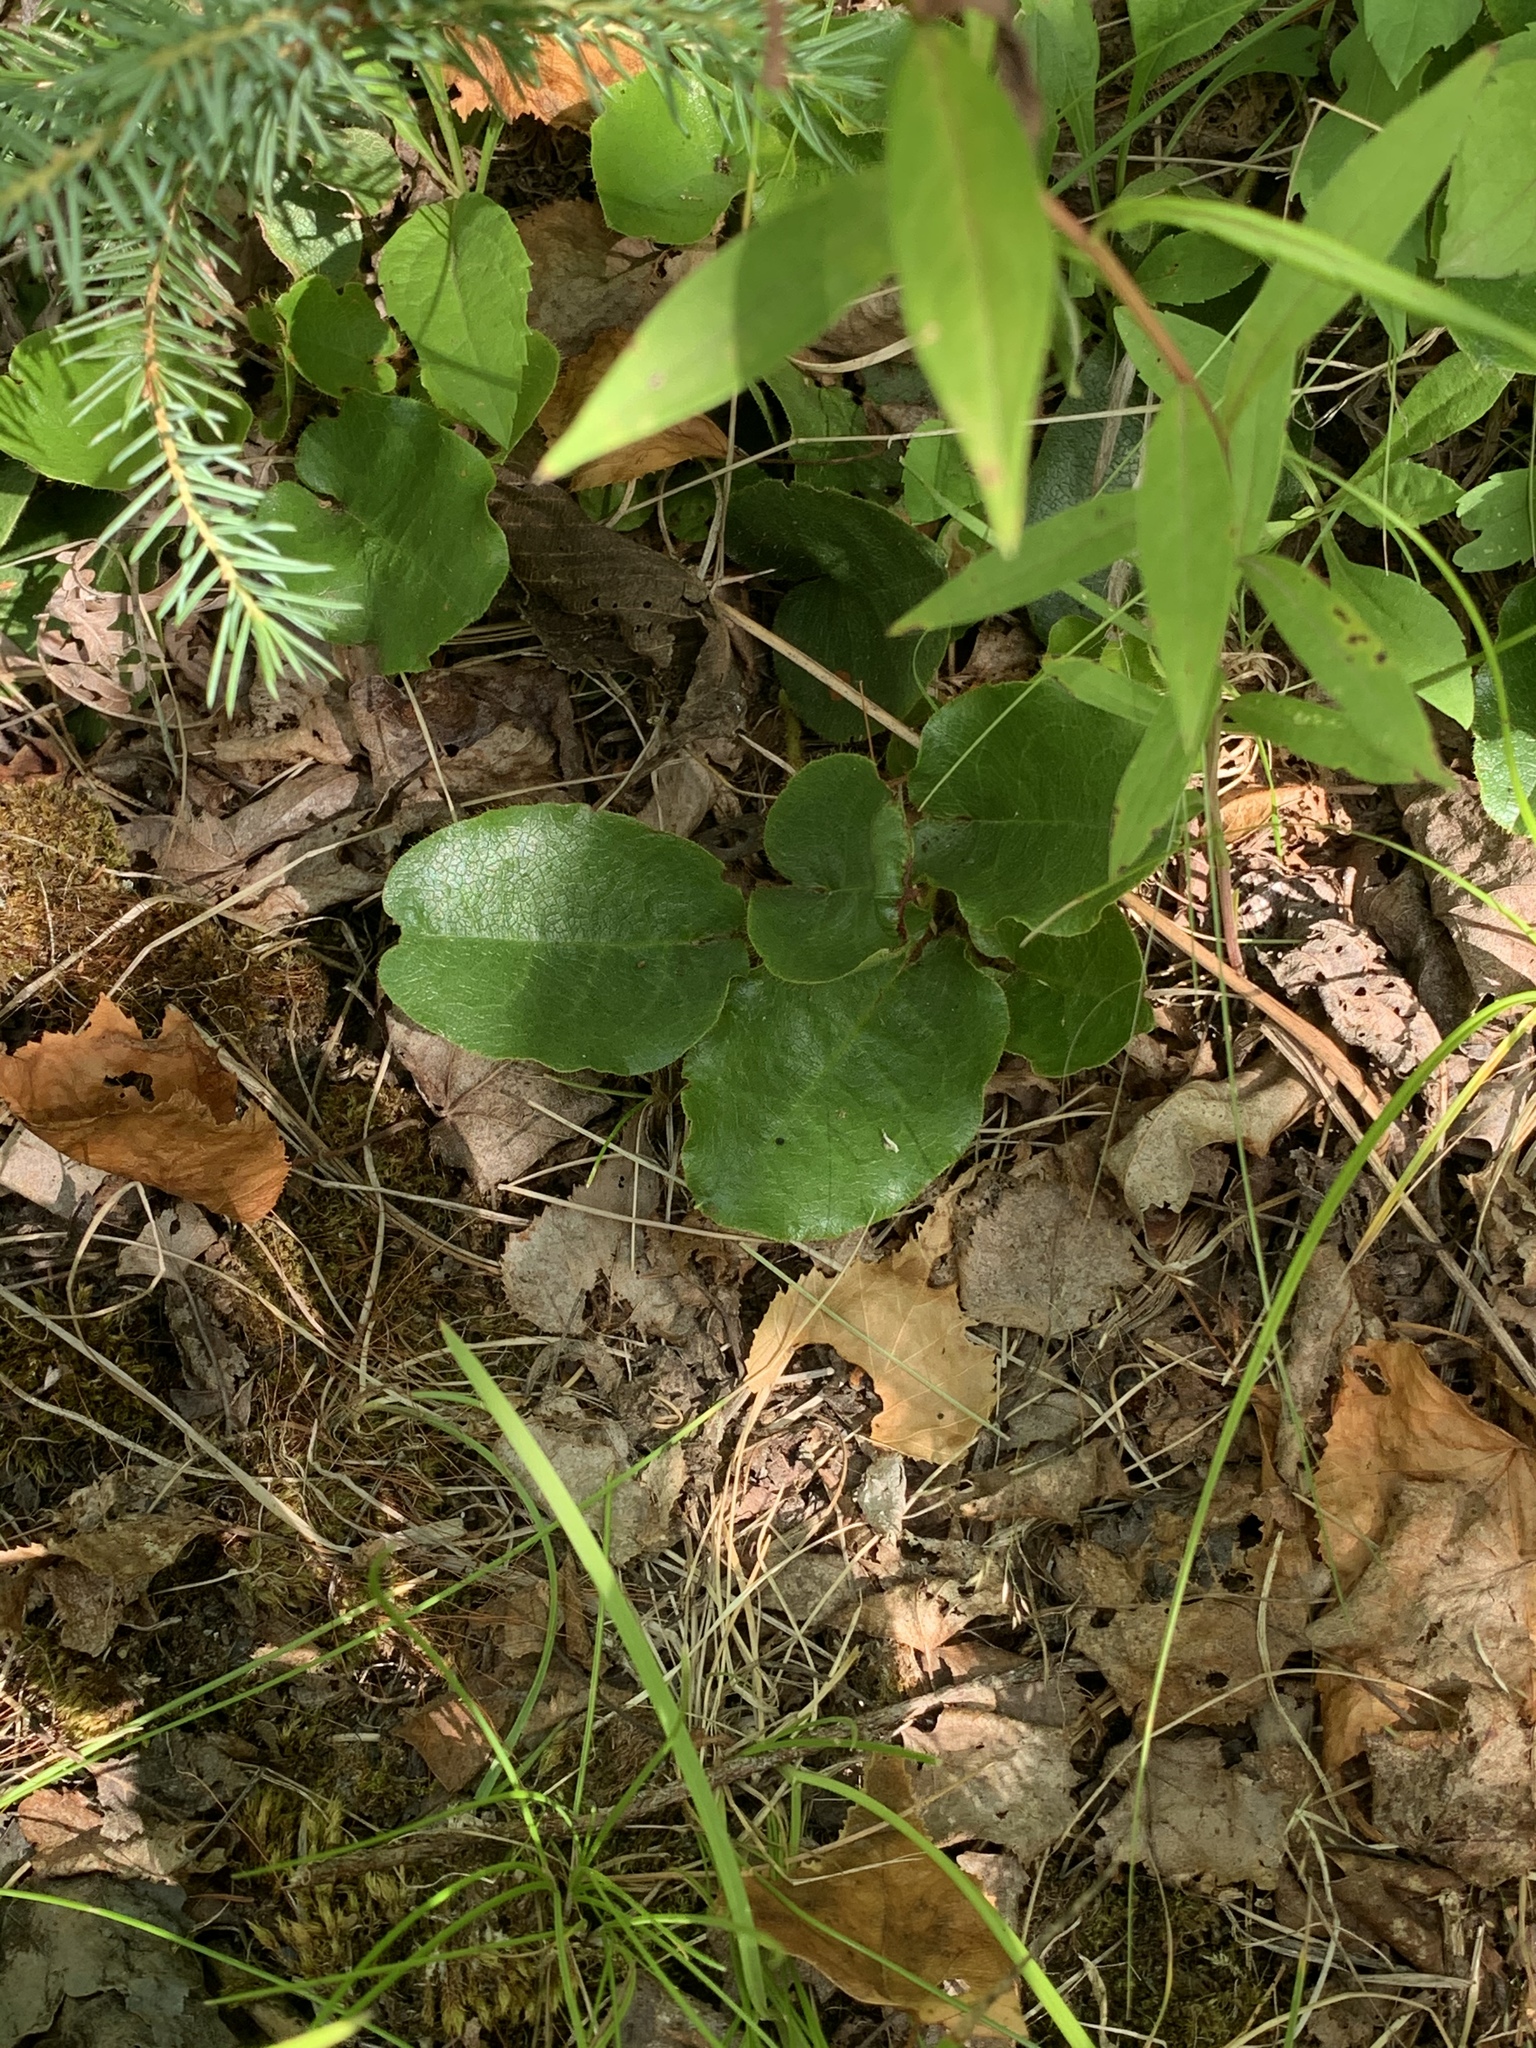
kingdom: Plantae
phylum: Tracheophyta
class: Magnoliopsida
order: Ericales
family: Ericaceae
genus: Epigaea
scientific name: Epigaea repens
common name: Gravelroot
